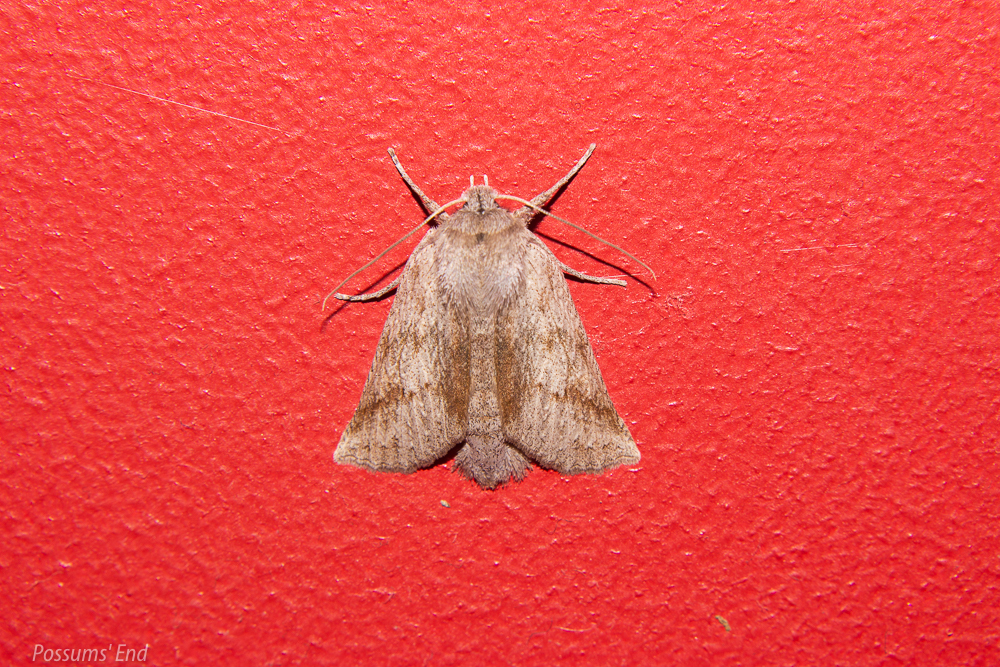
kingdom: Animalia
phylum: Arthropoda
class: Insecta
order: Lepidoptera
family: Geometridae
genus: Declana
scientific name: Declana leptomera
